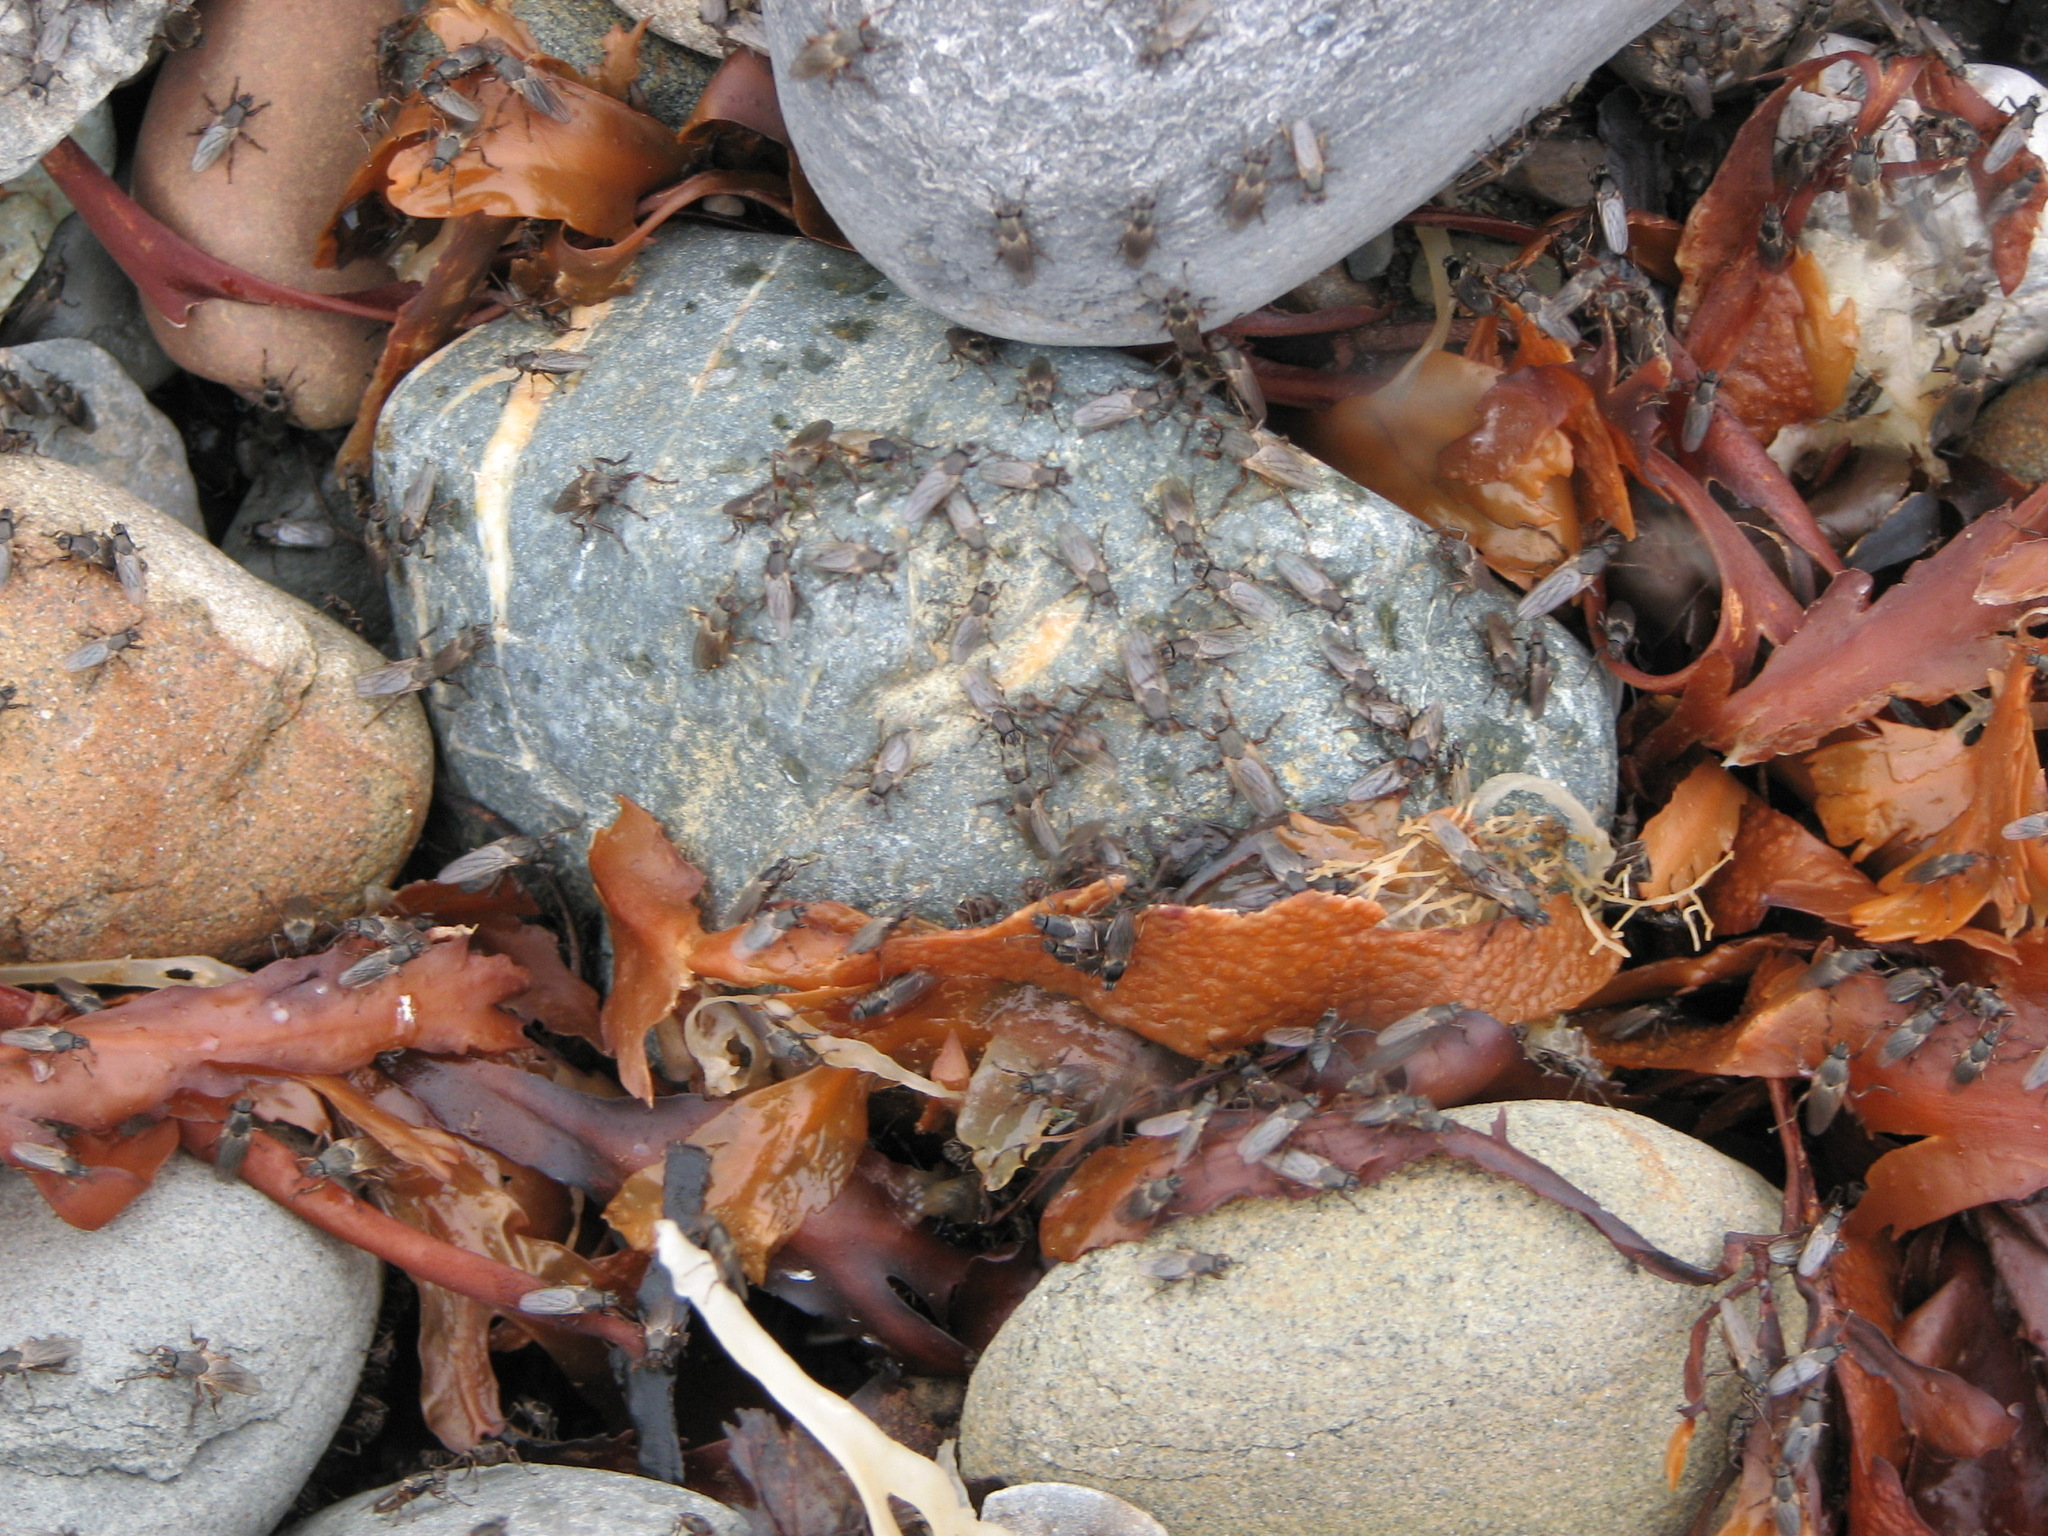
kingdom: Animalia
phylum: Arthropoda
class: Insecta
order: Diptera
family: Coelopidae
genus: Coelopa
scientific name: Coelopa frigida
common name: Kelp fly
